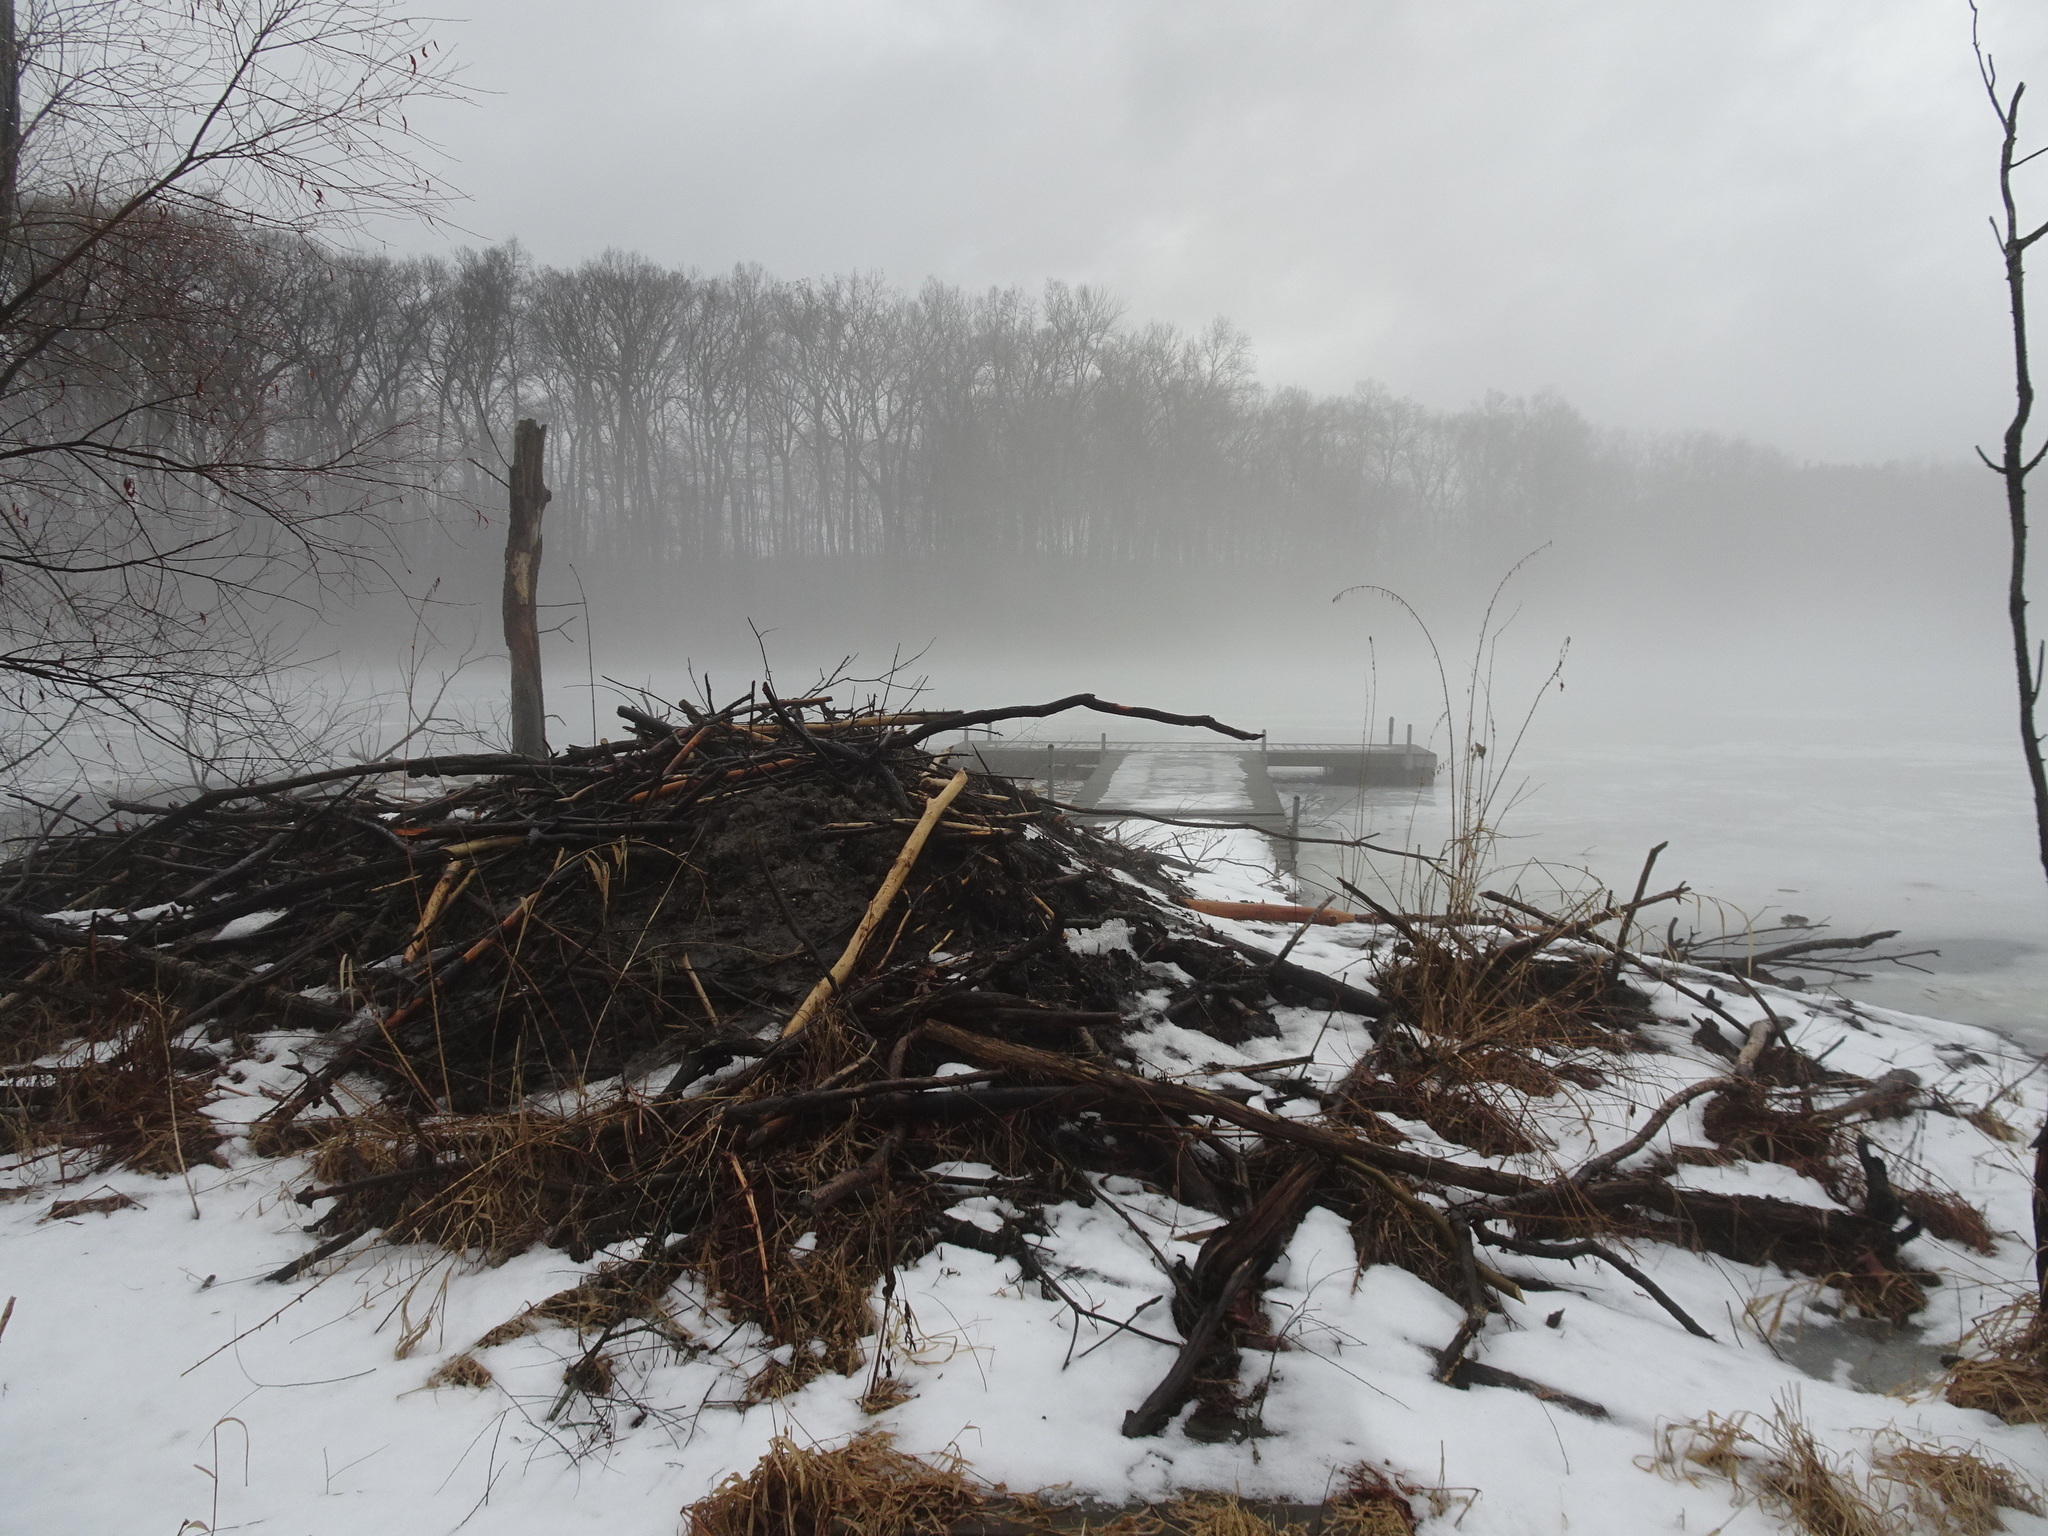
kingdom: Animalia
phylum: Chordata
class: Mammalia
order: Rodentia
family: Castoridae
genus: Castor
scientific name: Castor canadensis
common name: American beaver
